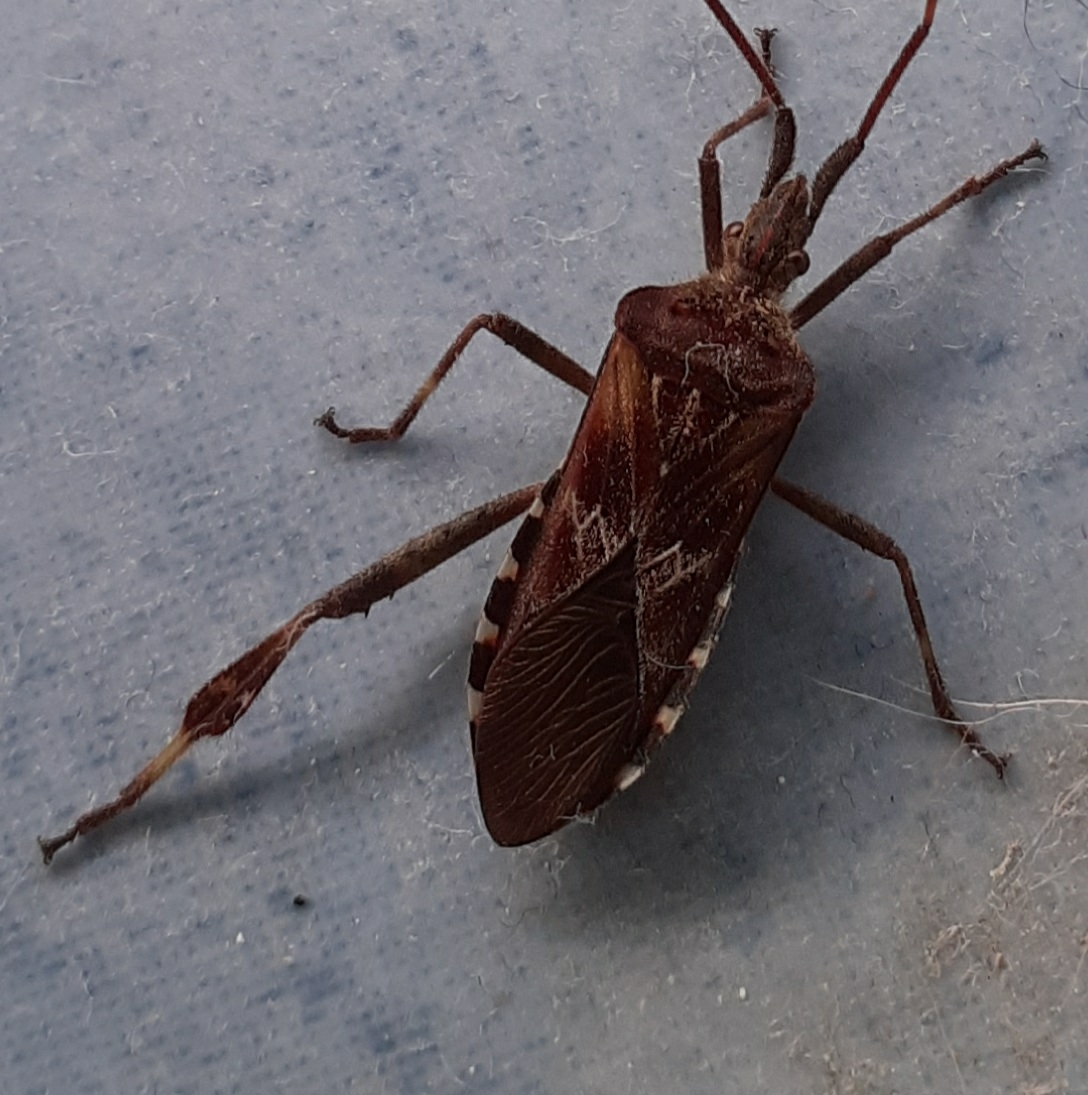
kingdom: Animalia
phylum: Arthropoda
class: Insecta
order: Hemiptera
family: Coreidae
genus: Leptoglossus
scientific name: Leptoglossus occidentalis
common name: Western conifer-seed bug
